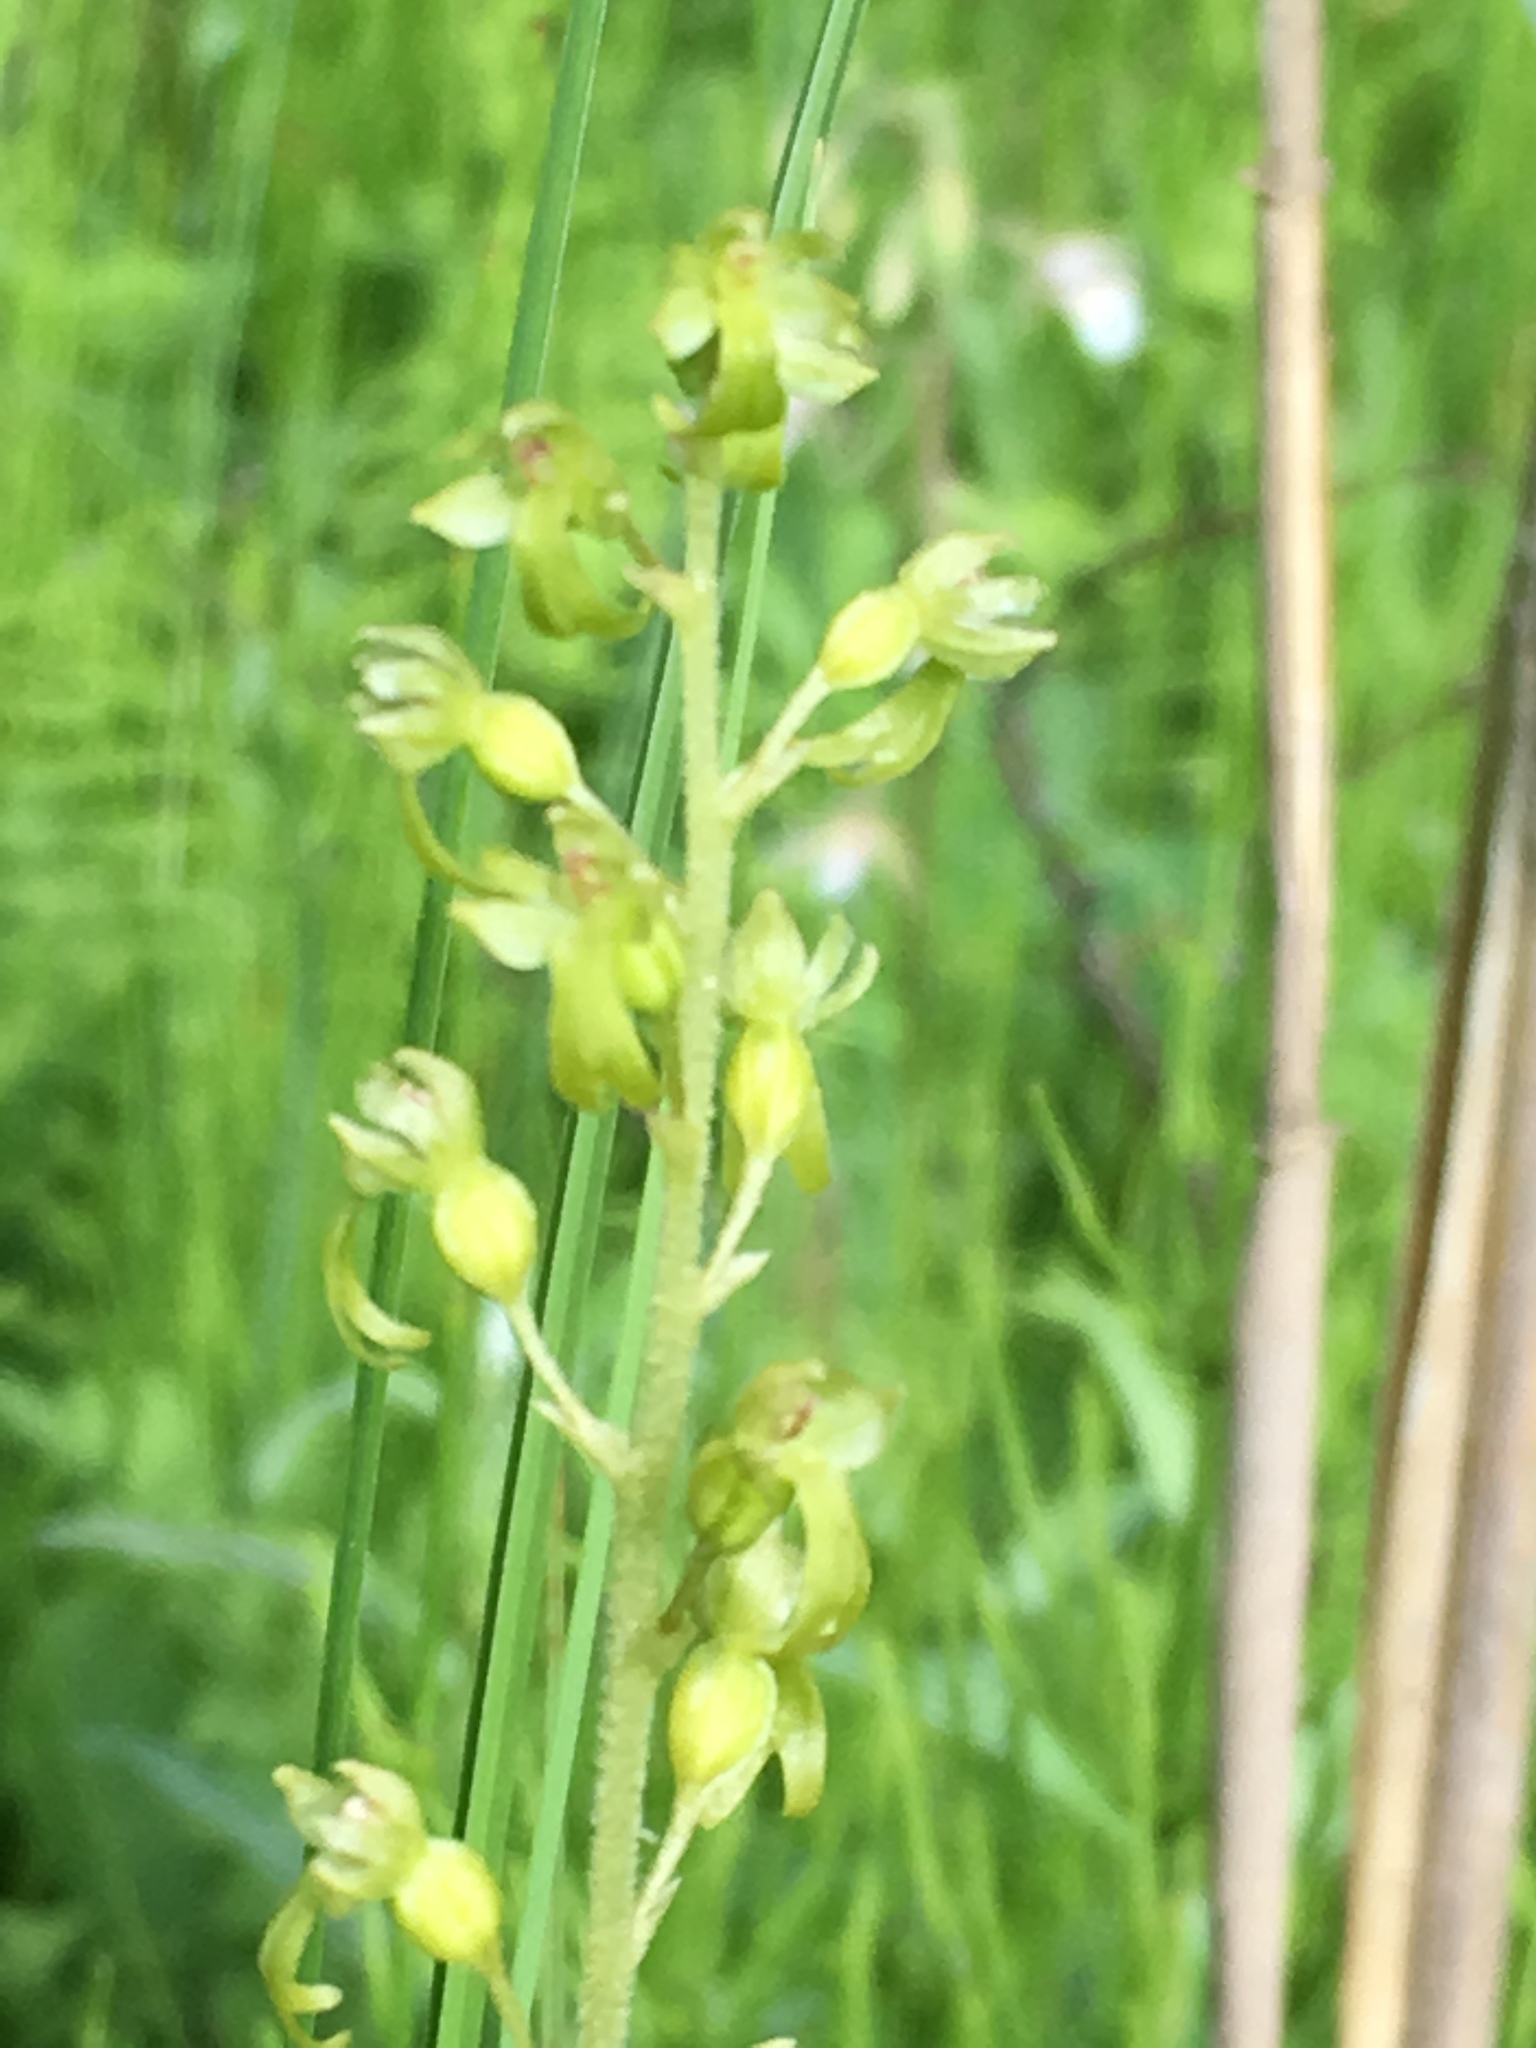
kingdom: Plantae
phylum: Tracheophyta
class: Liliopsida
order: Asparagales
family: Orchidaceae
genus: Neottia
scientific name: Neottia ovata
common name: Common twayblade
